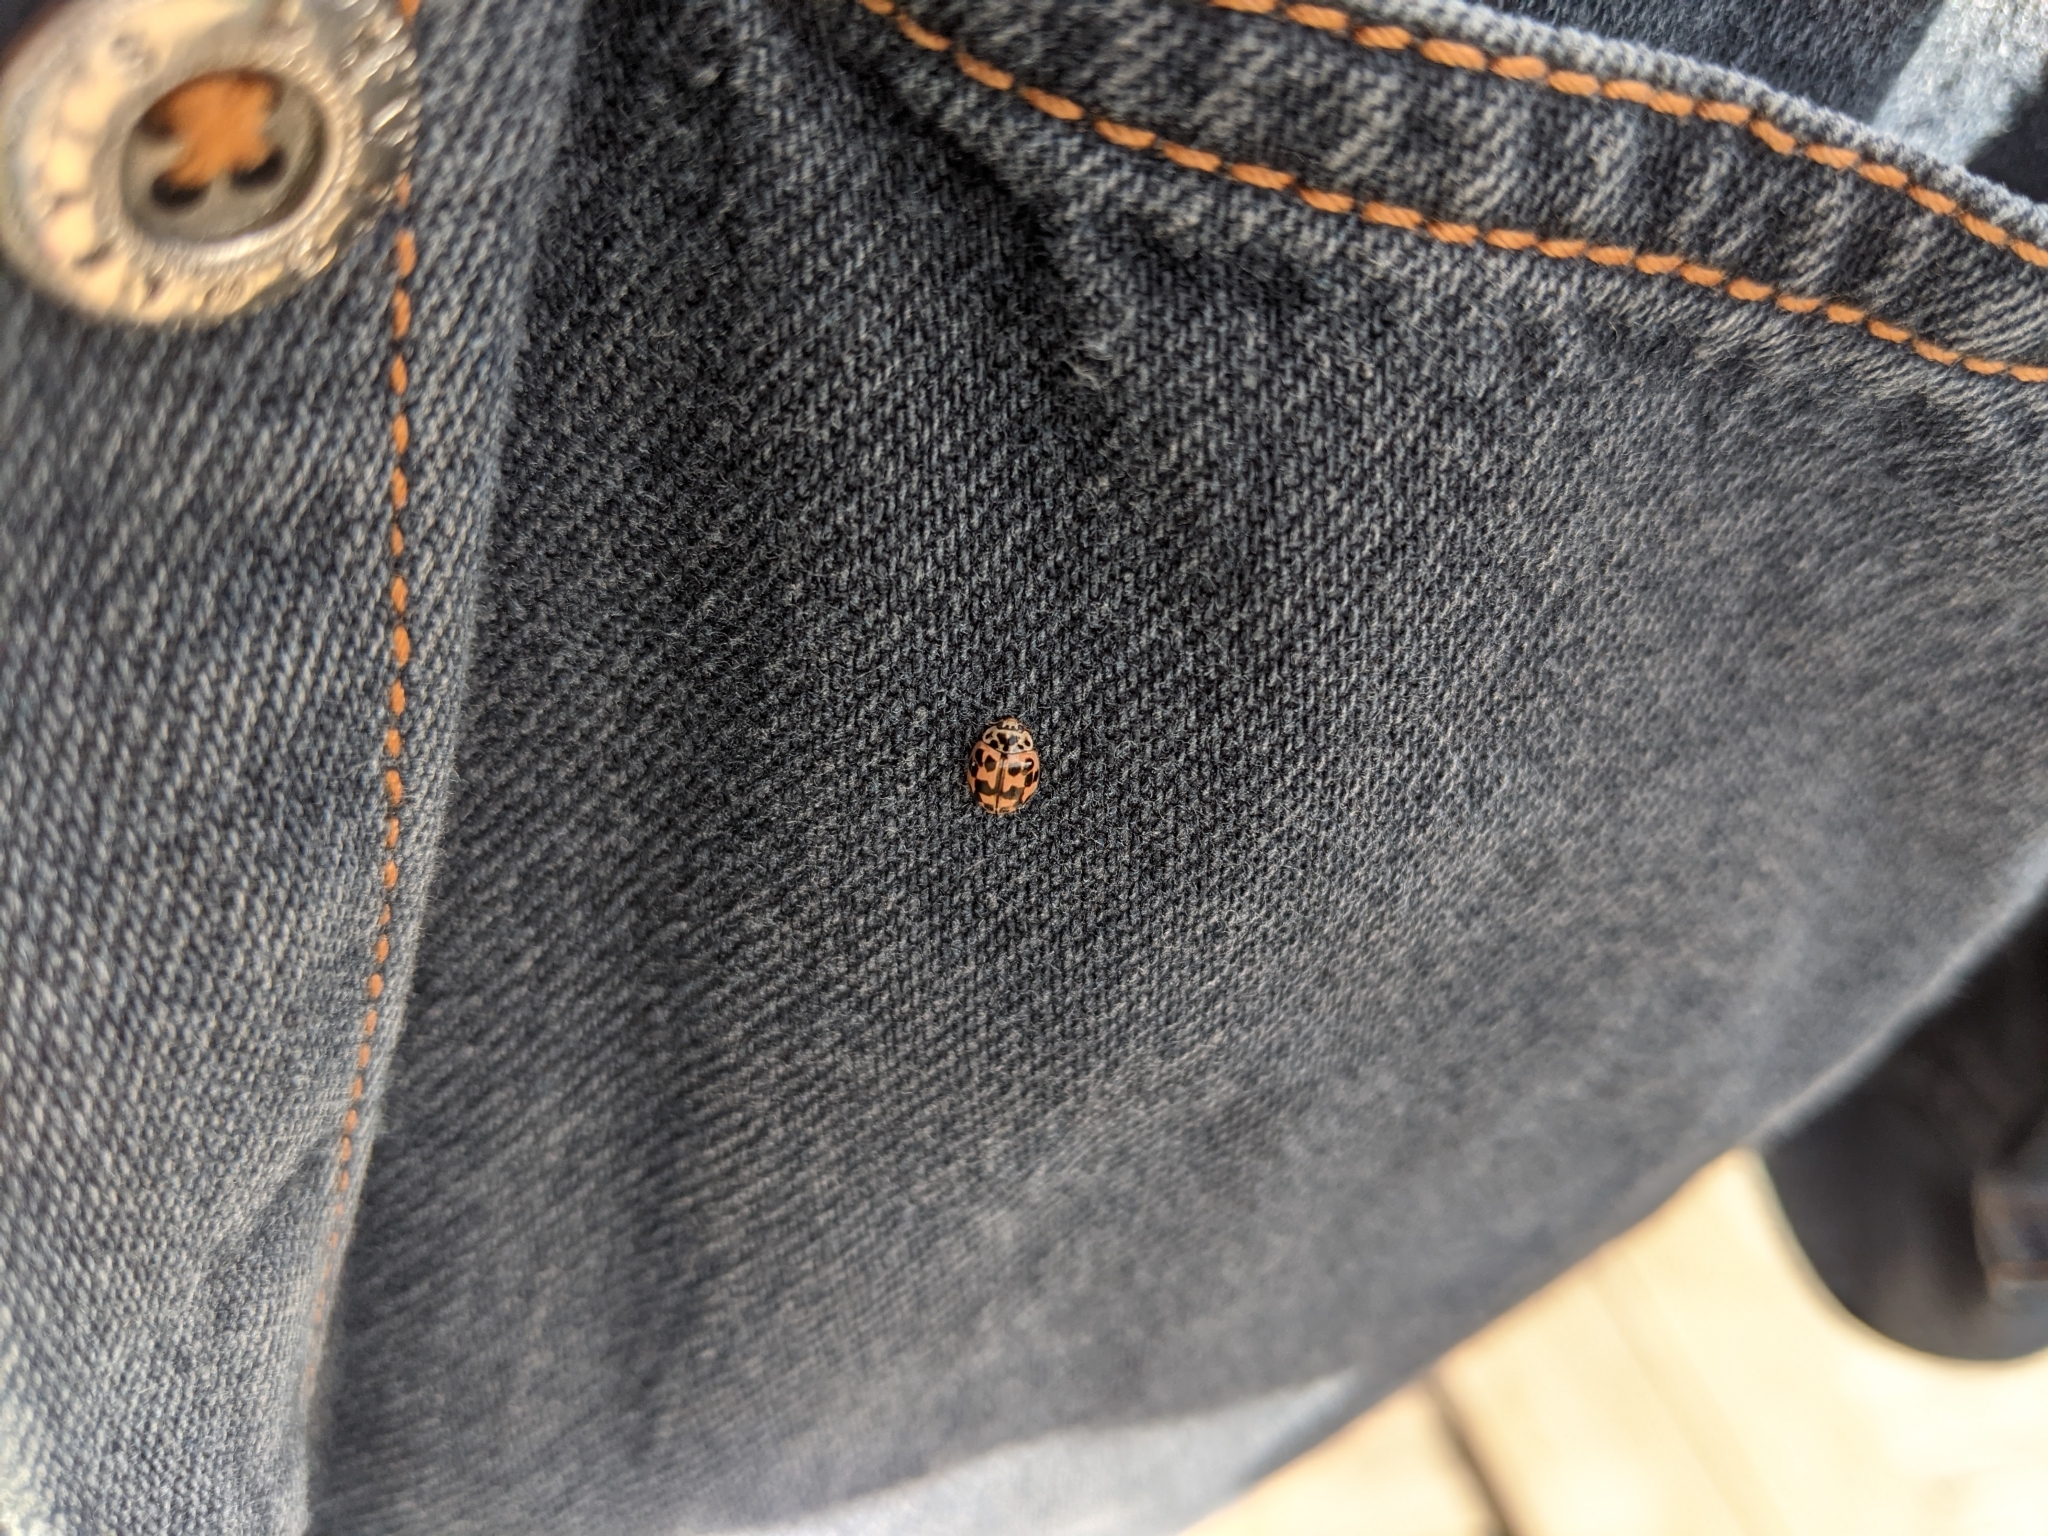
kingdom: Animalia
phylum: Arthropoda
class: Insecta
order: Coleoptera
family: Coccinellidae
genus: Oenopia
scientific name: Oenopia conglobata
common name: Ladybird beetle
